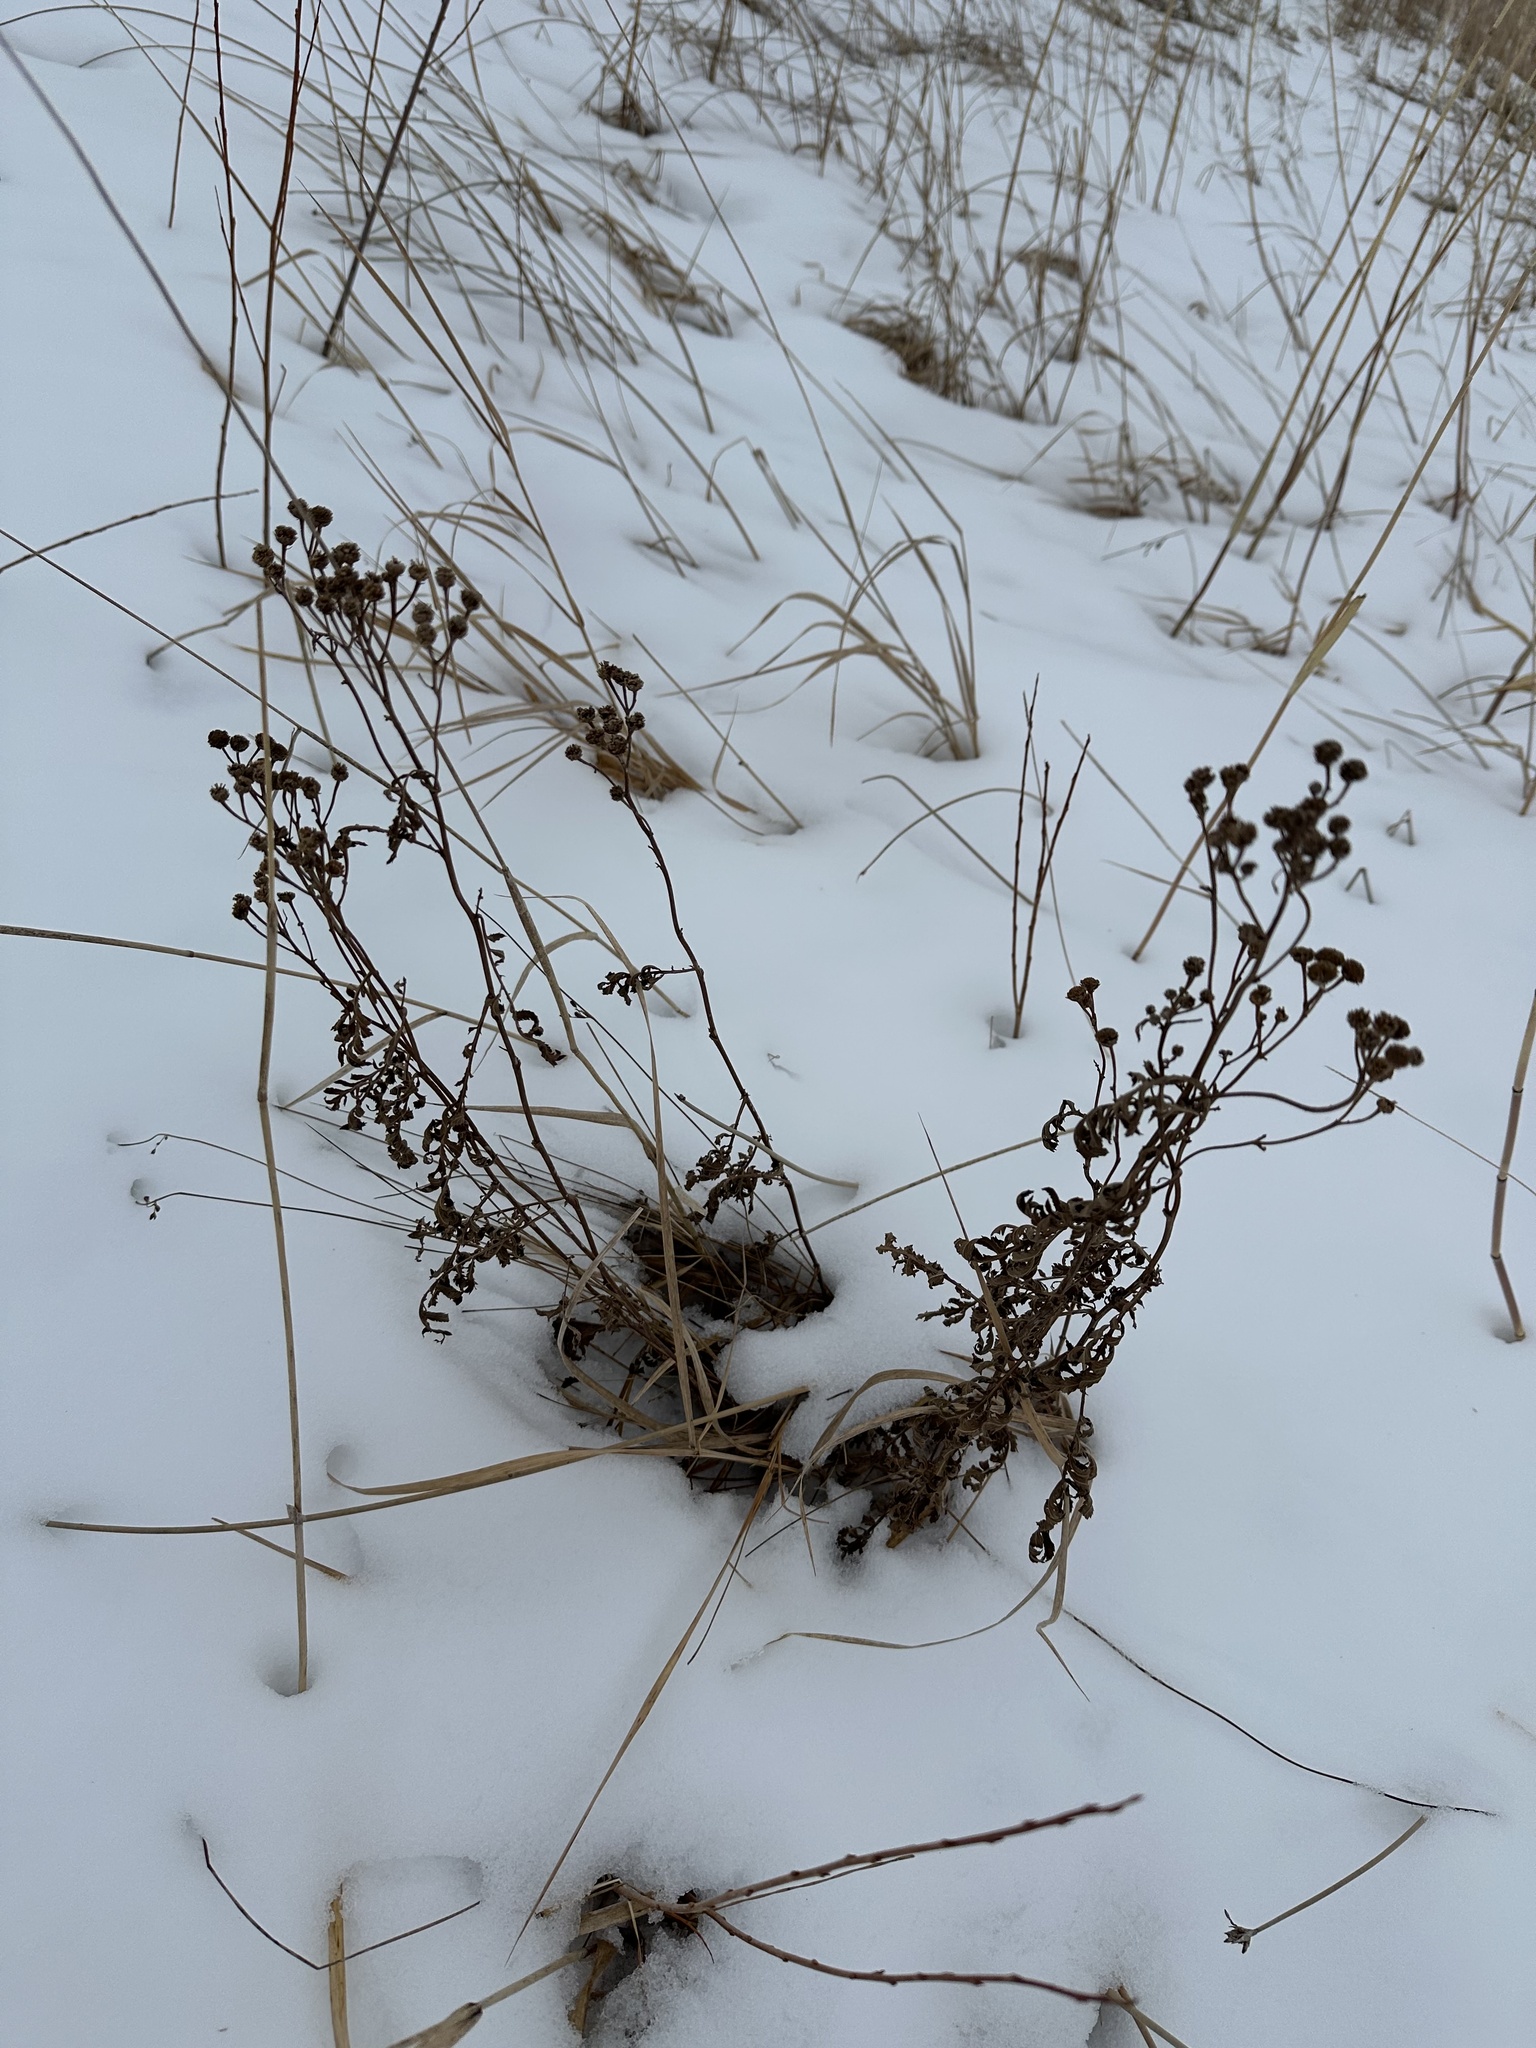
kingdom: Plantae
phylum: Tracheophyta
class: Magnoliopsida
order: Asterales
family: Asteraceae
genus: Tanacetum
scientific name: Tanacetum vulgare
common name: Common tansy
